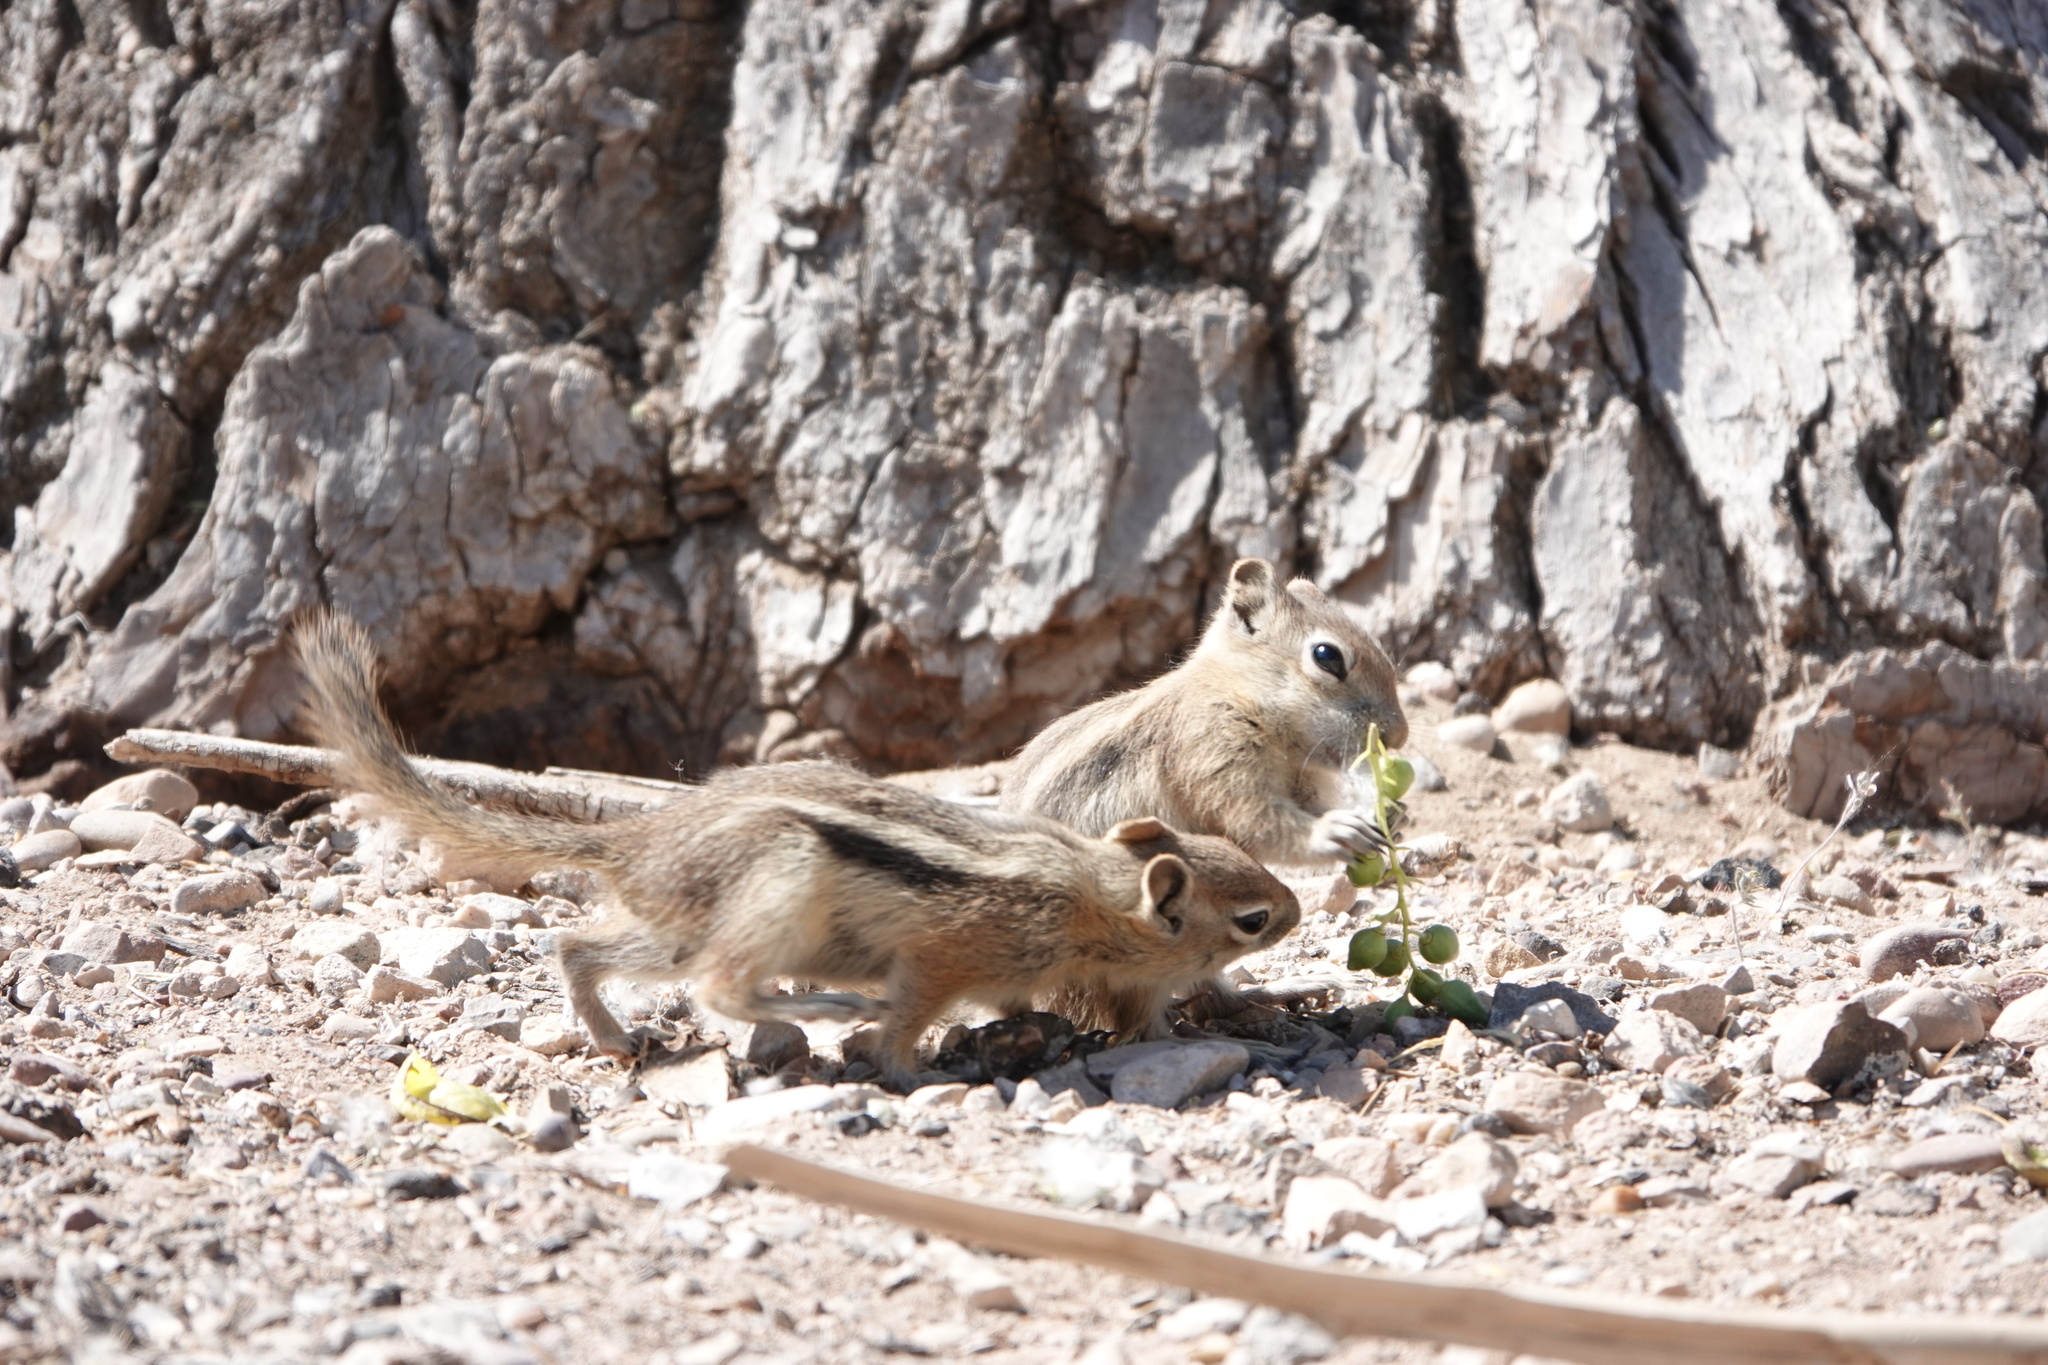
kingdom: Animalia
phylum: Chordata
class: Mammalia
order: Rodentia
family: Sciuridae
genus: Callospermophilus
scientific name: Callospermophilus lateralis
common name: Golden-mantled ground squirrel
